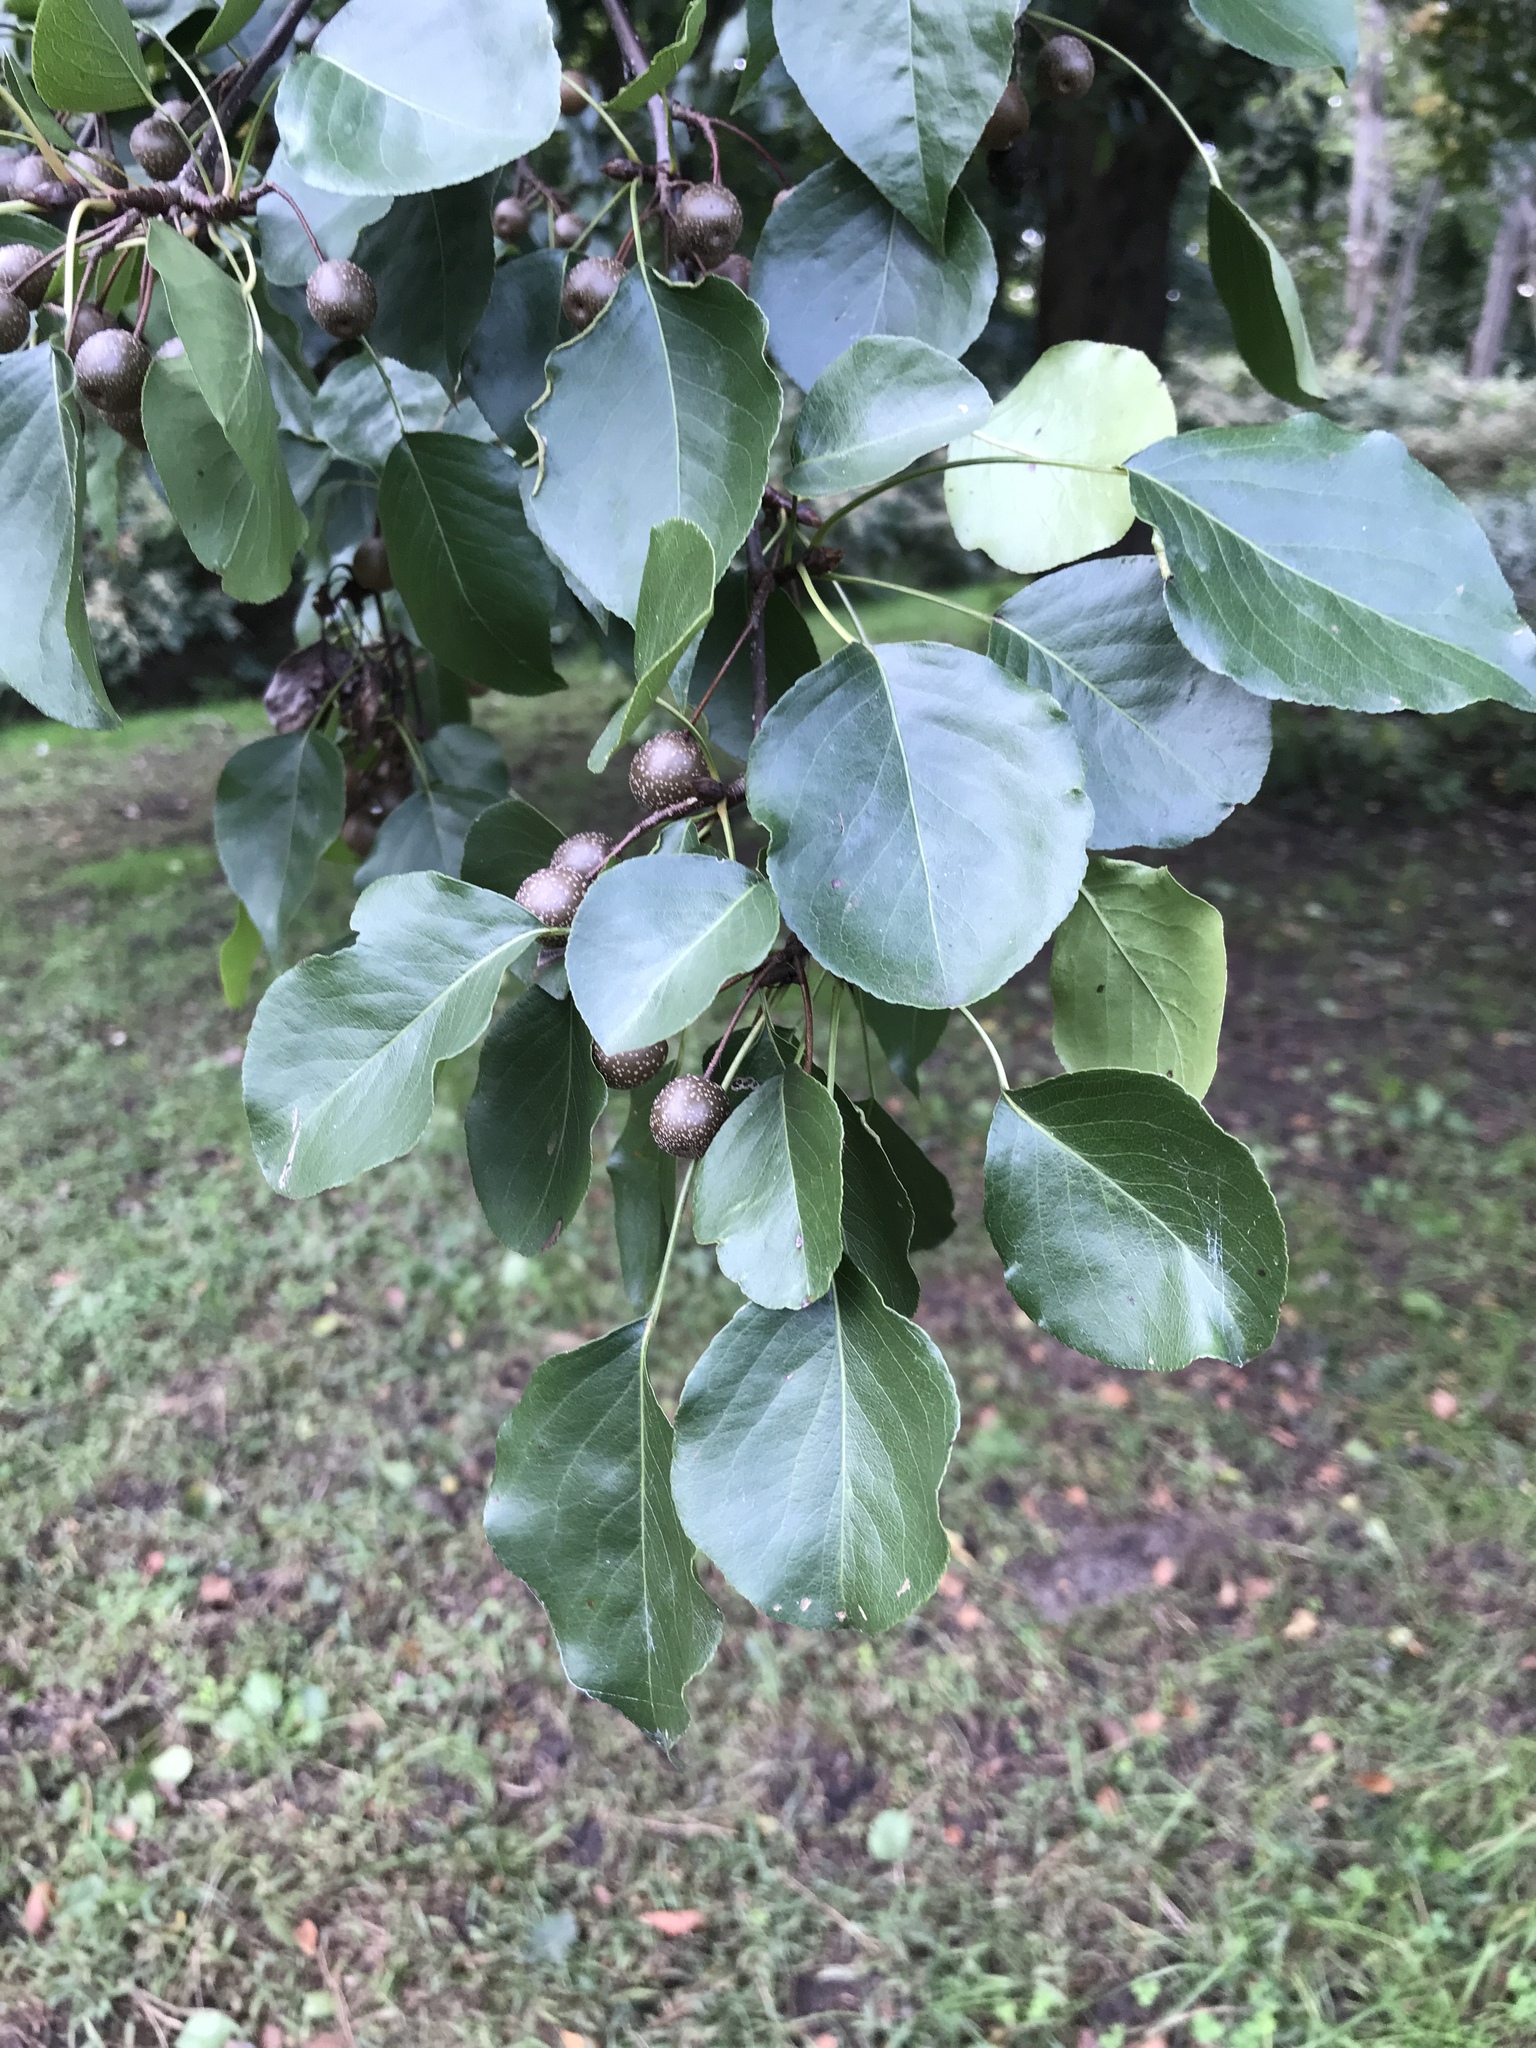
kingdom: Plantae
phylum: Tracheophyta
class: Magnoliopsida
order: Rosales
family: Rosaceae
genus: Pyrus
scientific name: Pyrus calleryana
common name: Callery pear
